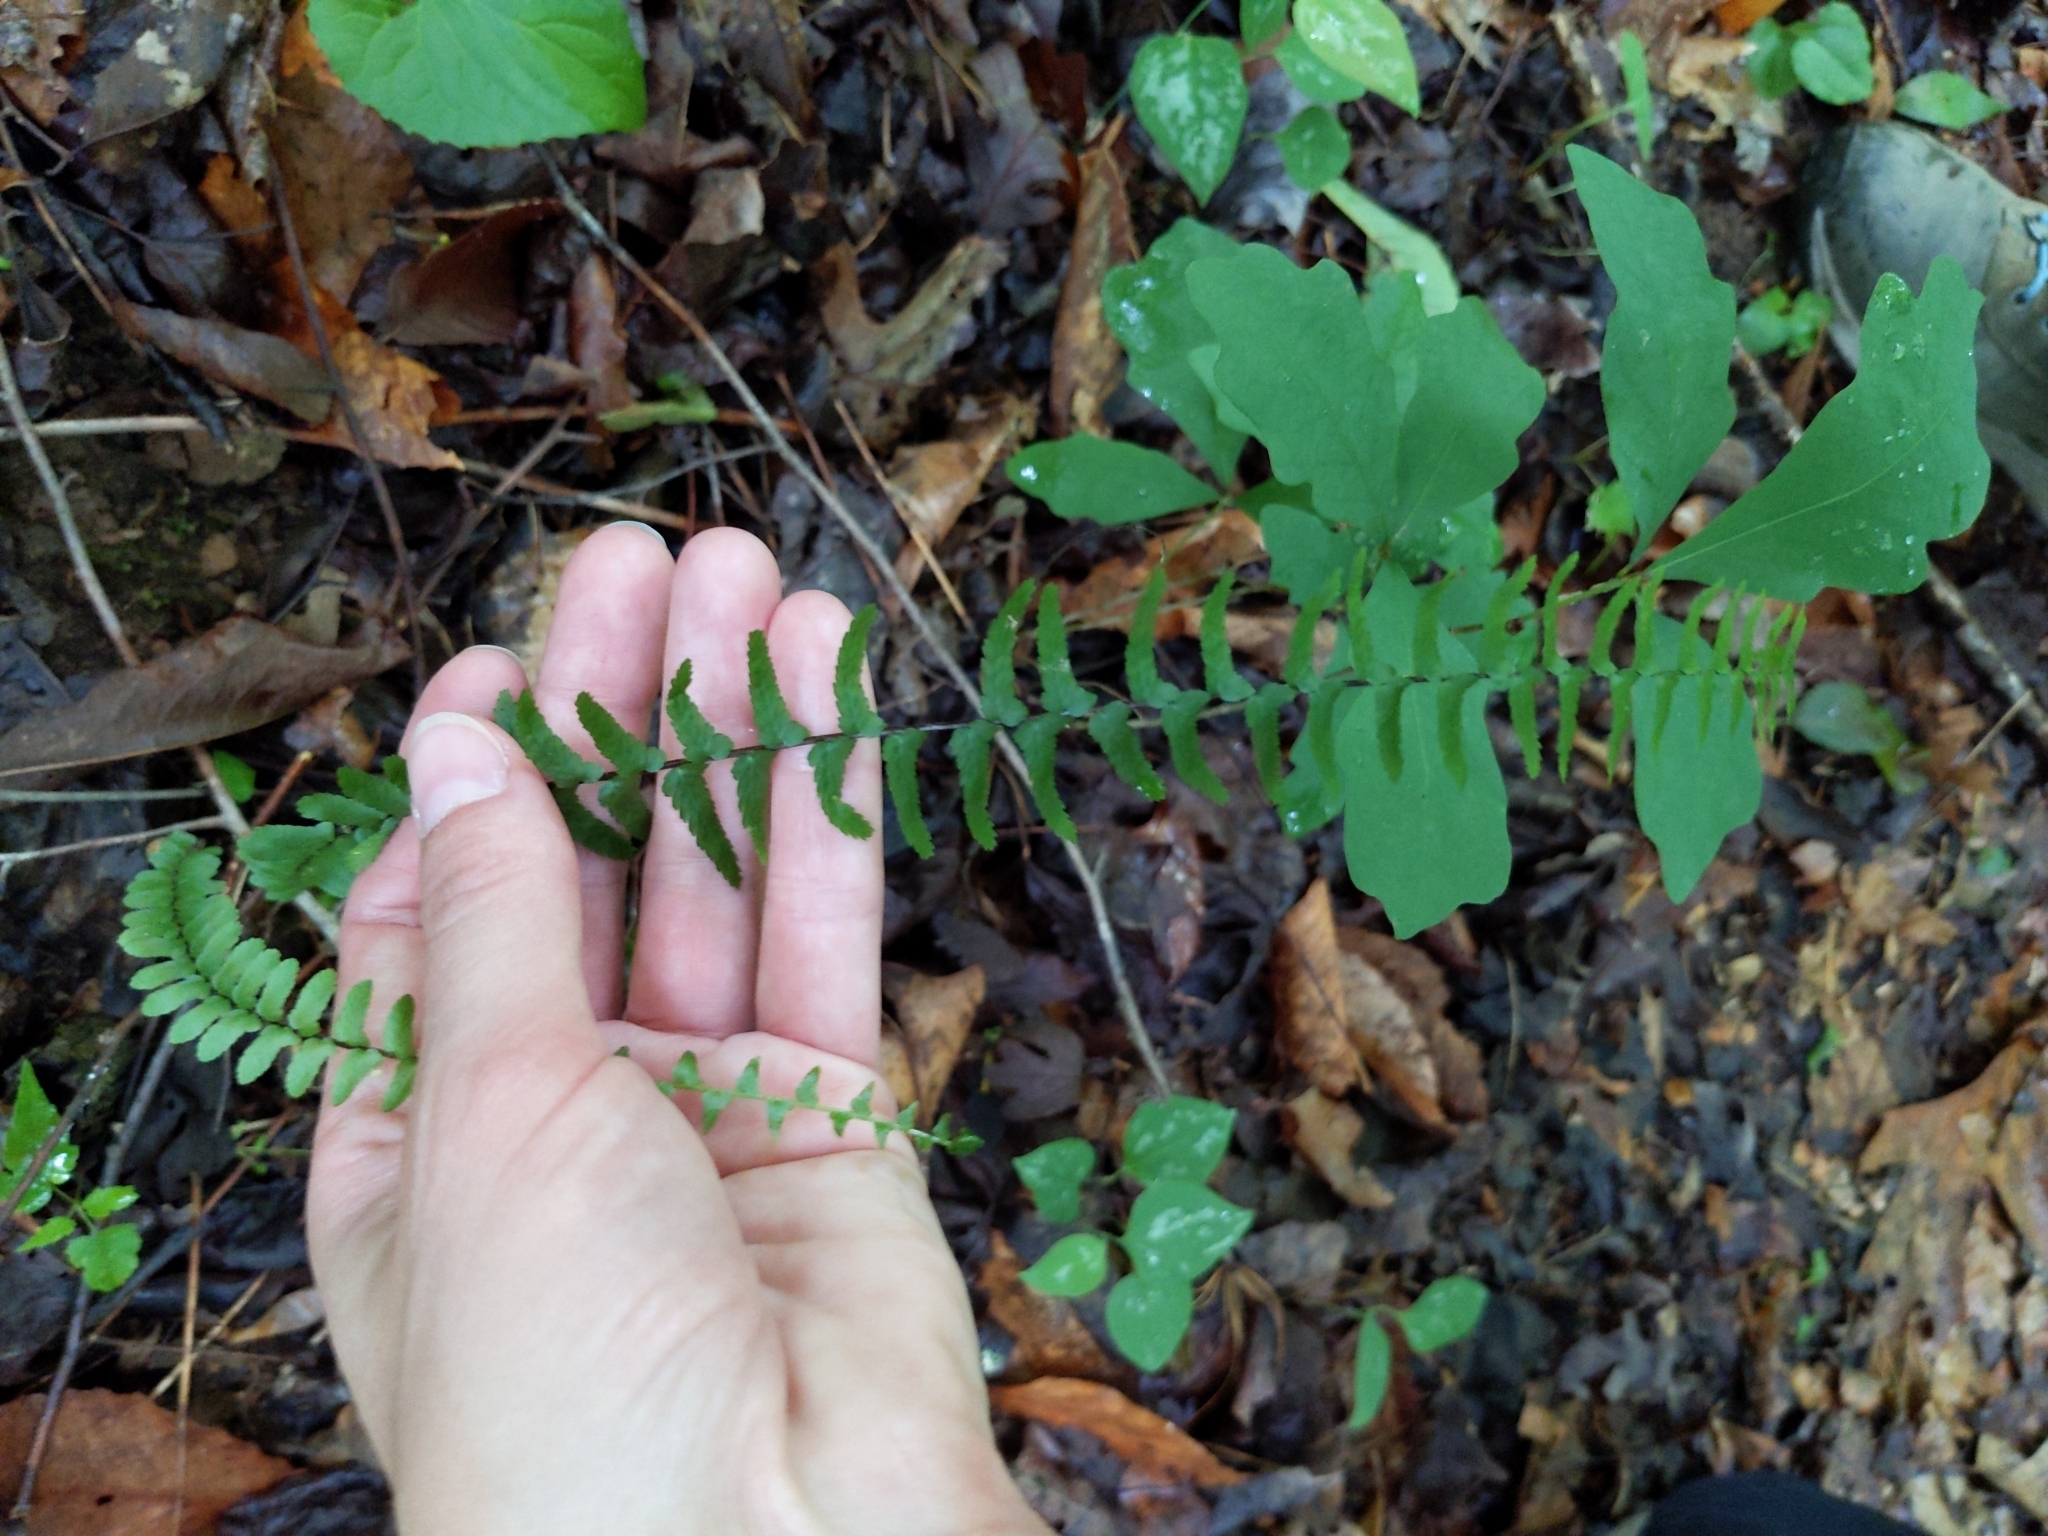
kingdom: Plantae
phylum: Tracheophyta
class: Polypodiopsida
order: Polypodiales
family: Aspleniaceae
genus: Asplenium
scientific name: Asplenium platyneuron
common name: Ebony spleenwort
